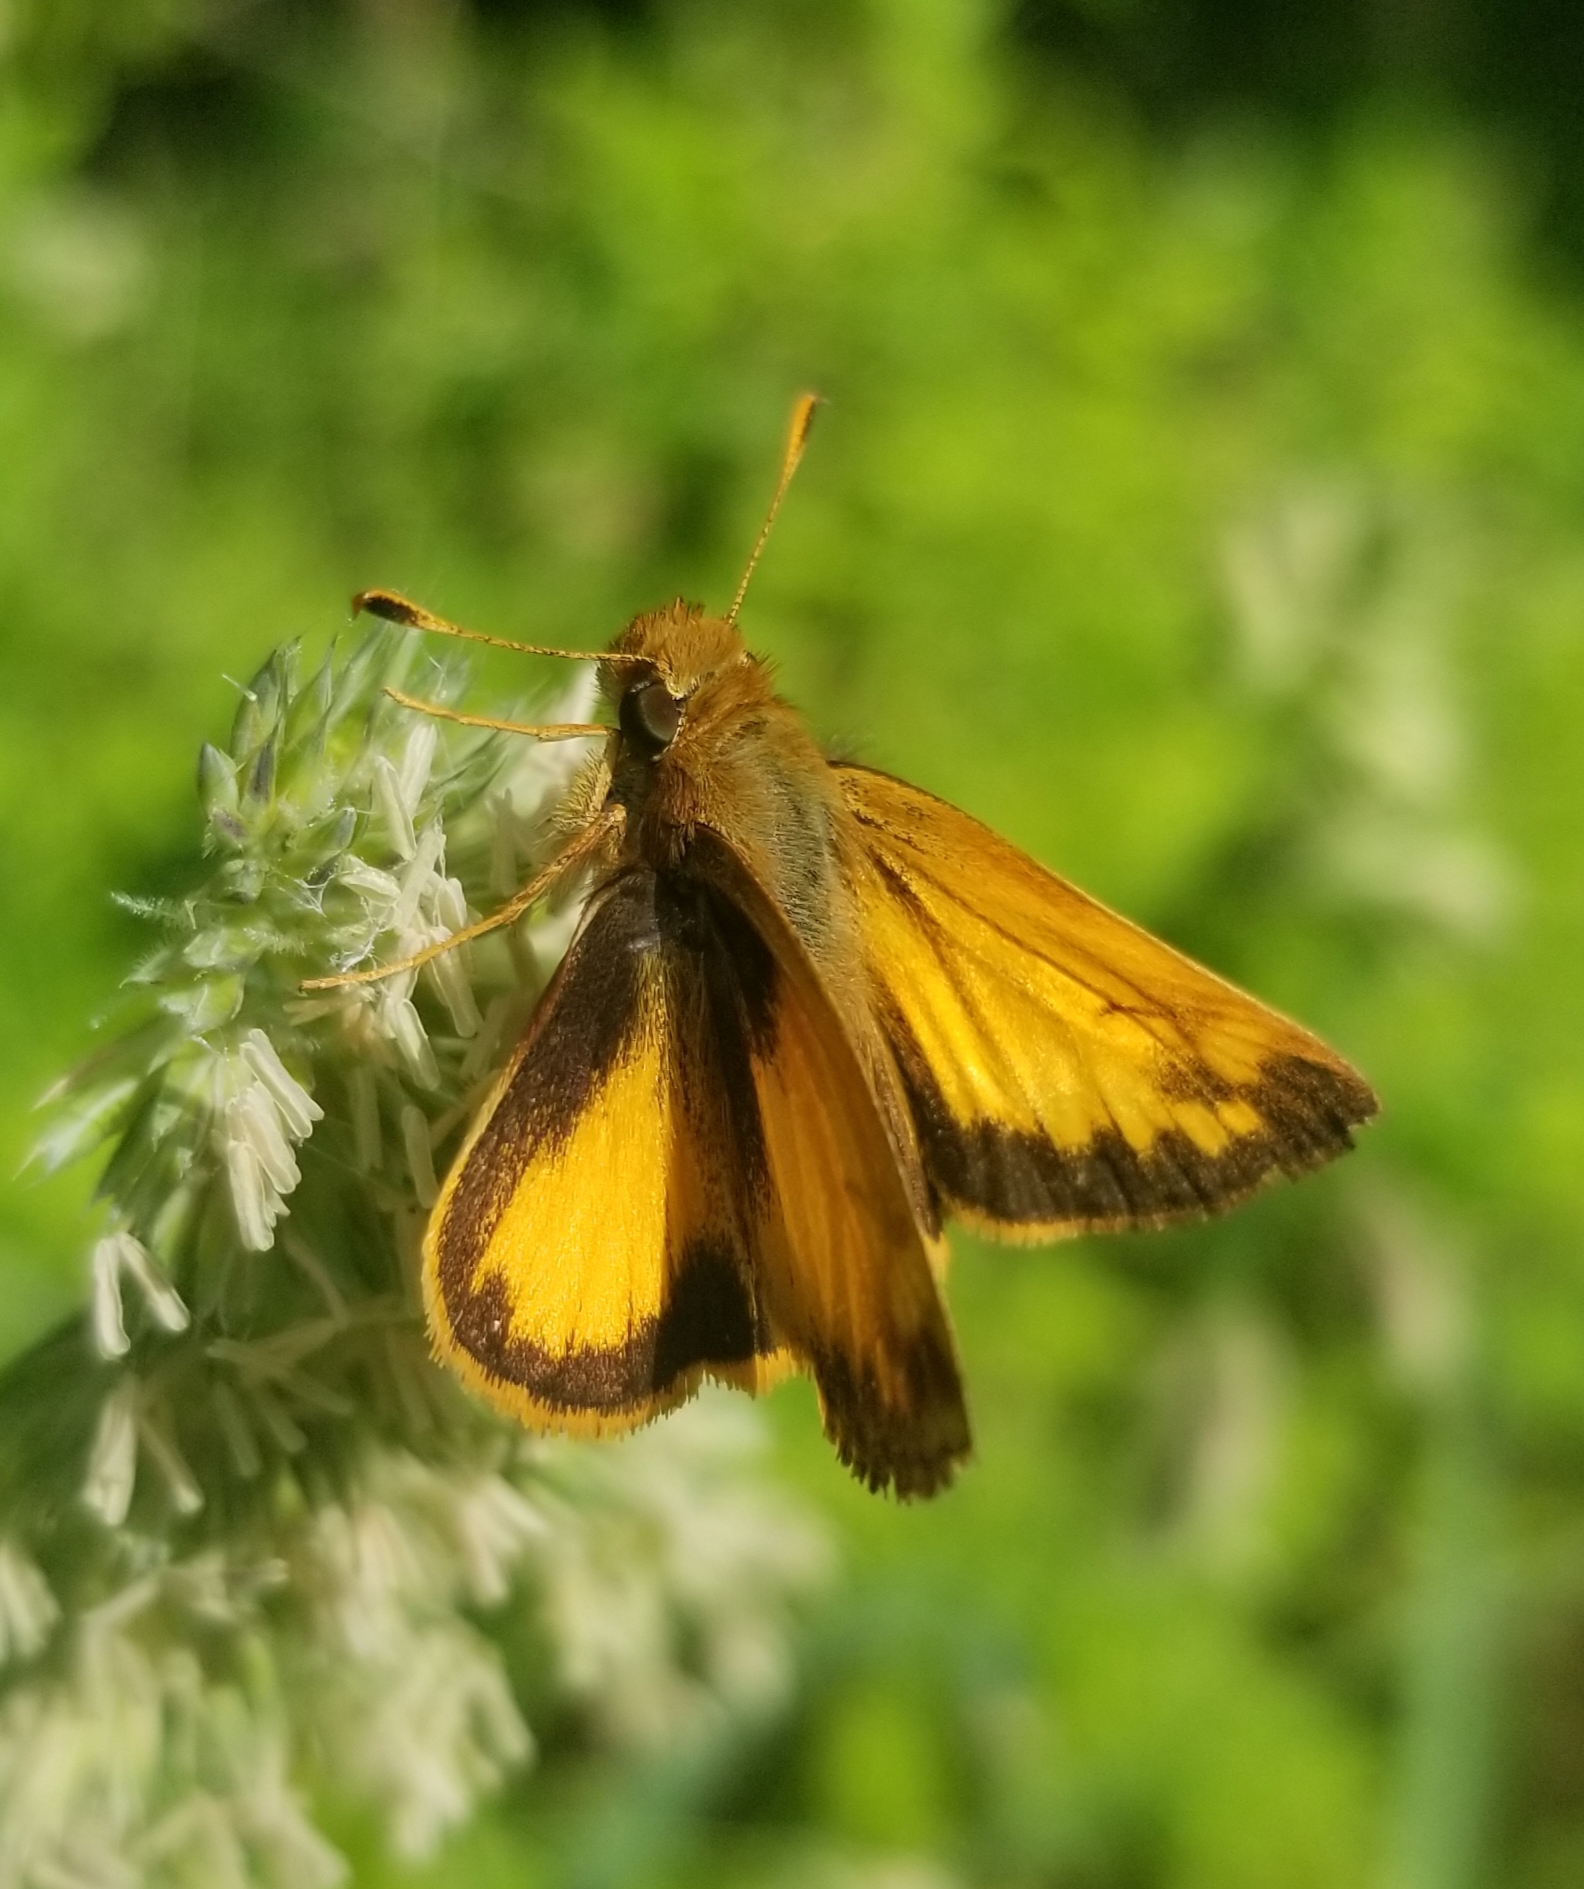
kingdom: Animalia
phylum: Arthropoda
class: Insecta
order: Lepidoptera
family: Hesperiidae
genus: Lon
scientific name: Lon zabulon
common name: Zabulon skipper
